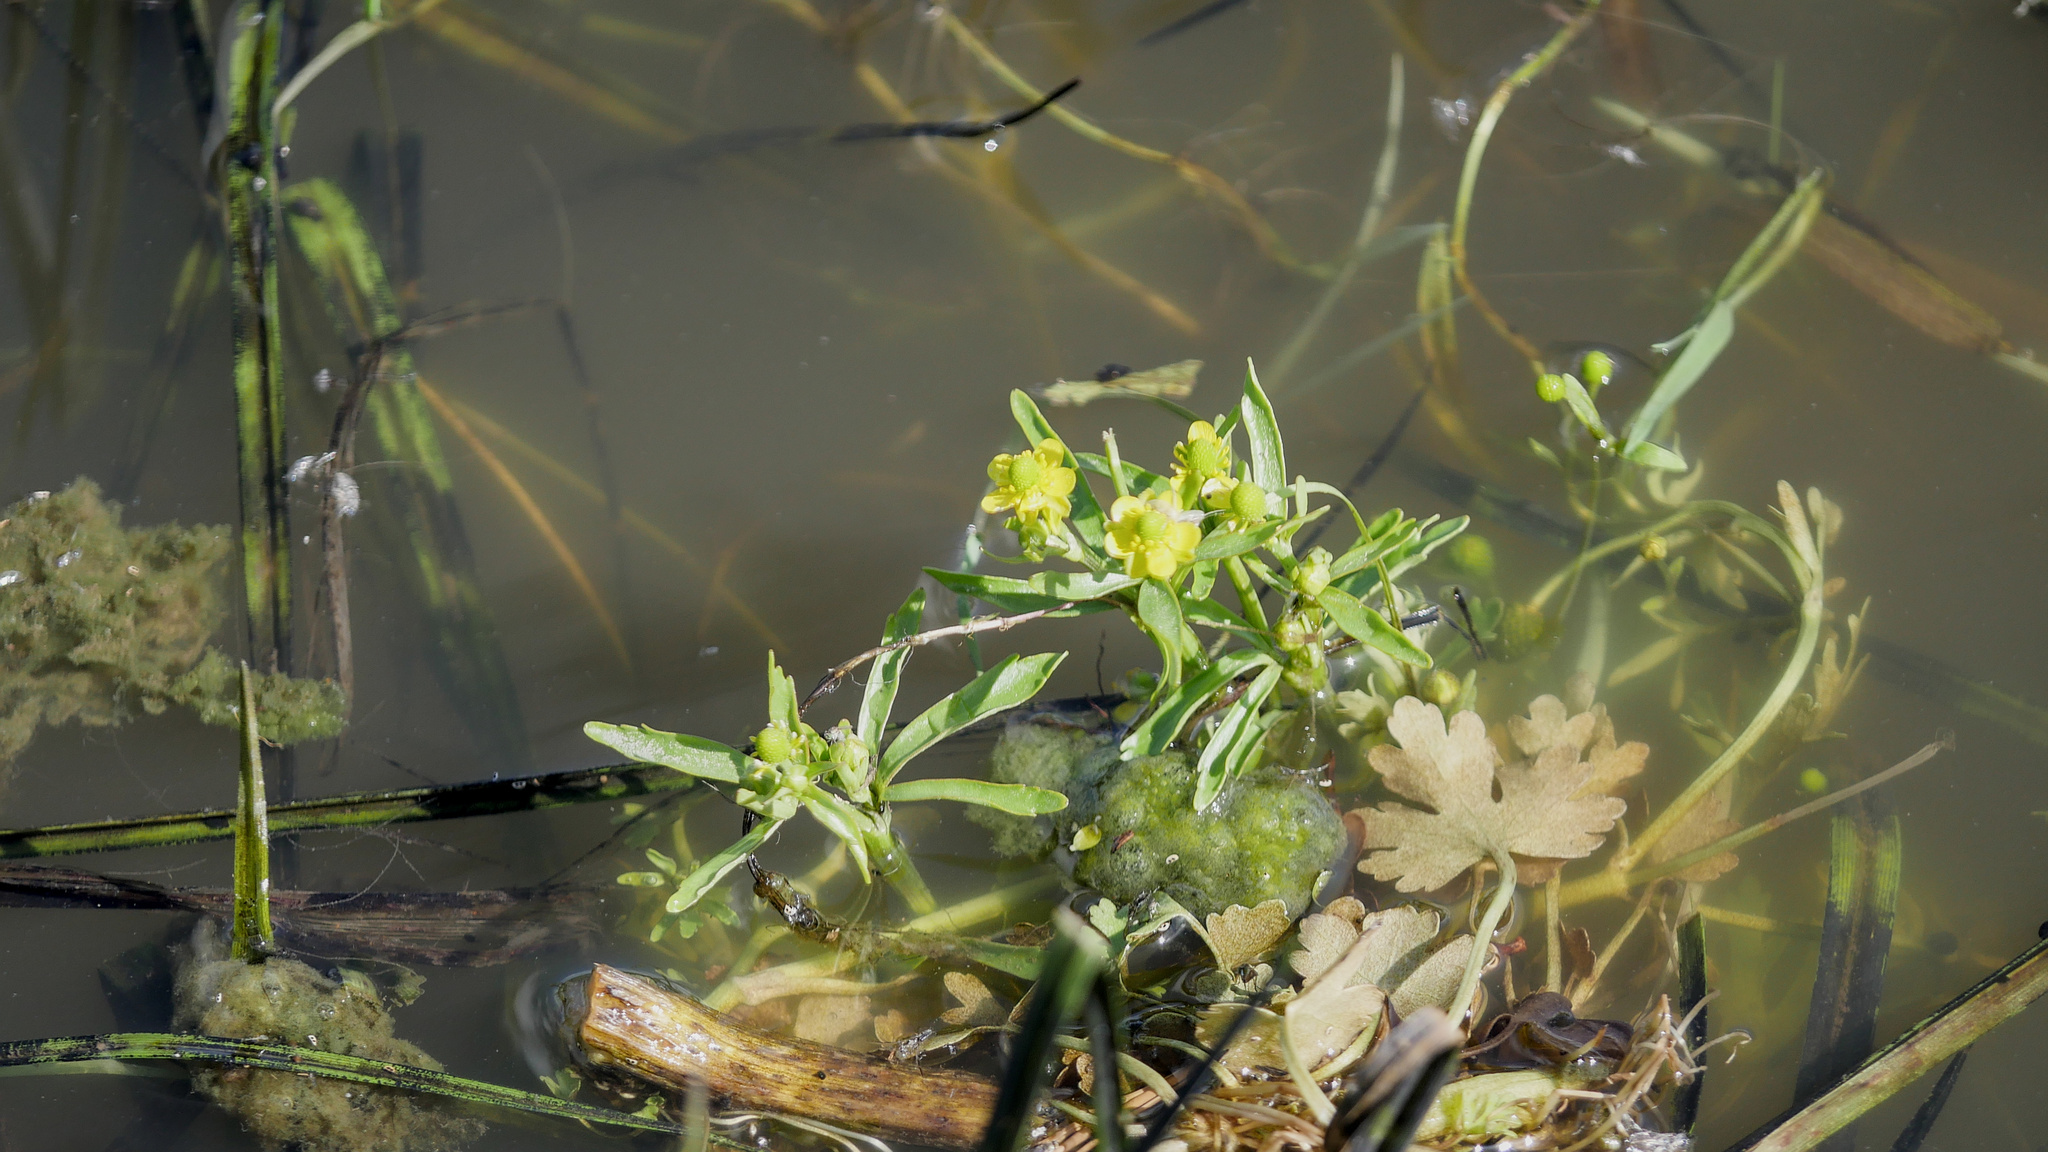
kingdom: Plantae
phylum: Tracheophyta
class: Magnoliopsida
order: Ranunculales
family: Ranunculaceae
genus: Ranunculus
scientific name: Ranunculus sceleratus
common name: Celery-leaved buttercup
